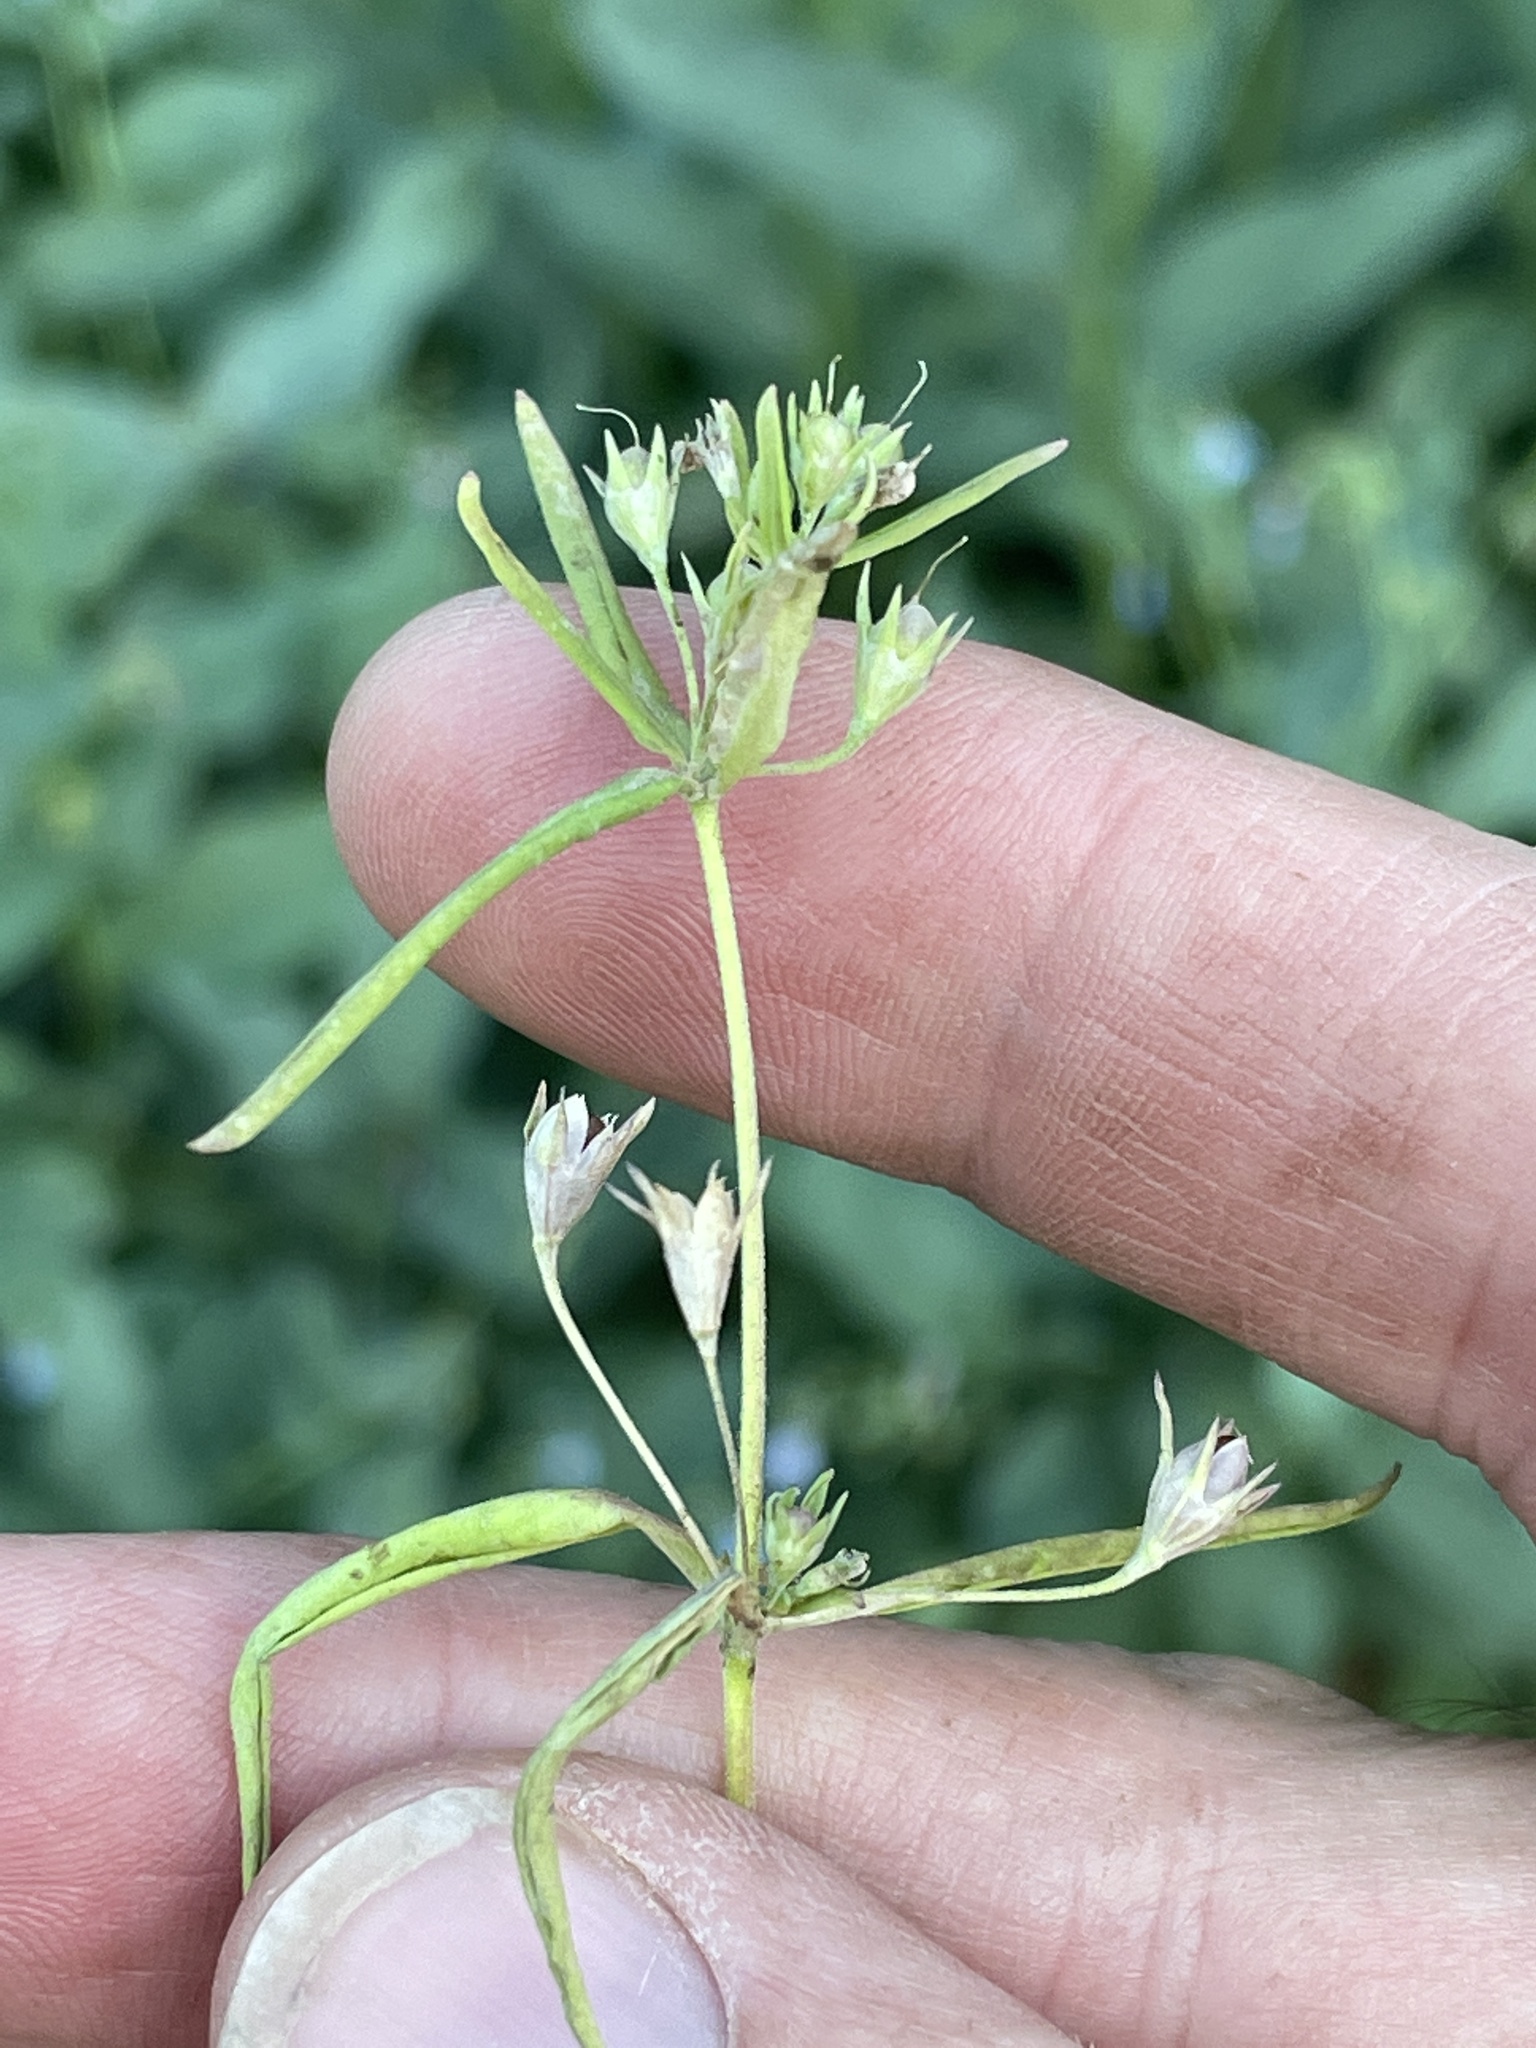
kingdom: Plantae
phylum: Tracheophyta
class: Magnoliopsida
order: Lamiales
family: Plantaginaceae
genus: Collinsia
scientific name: Collinsia parviflora
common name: Blue-lips
